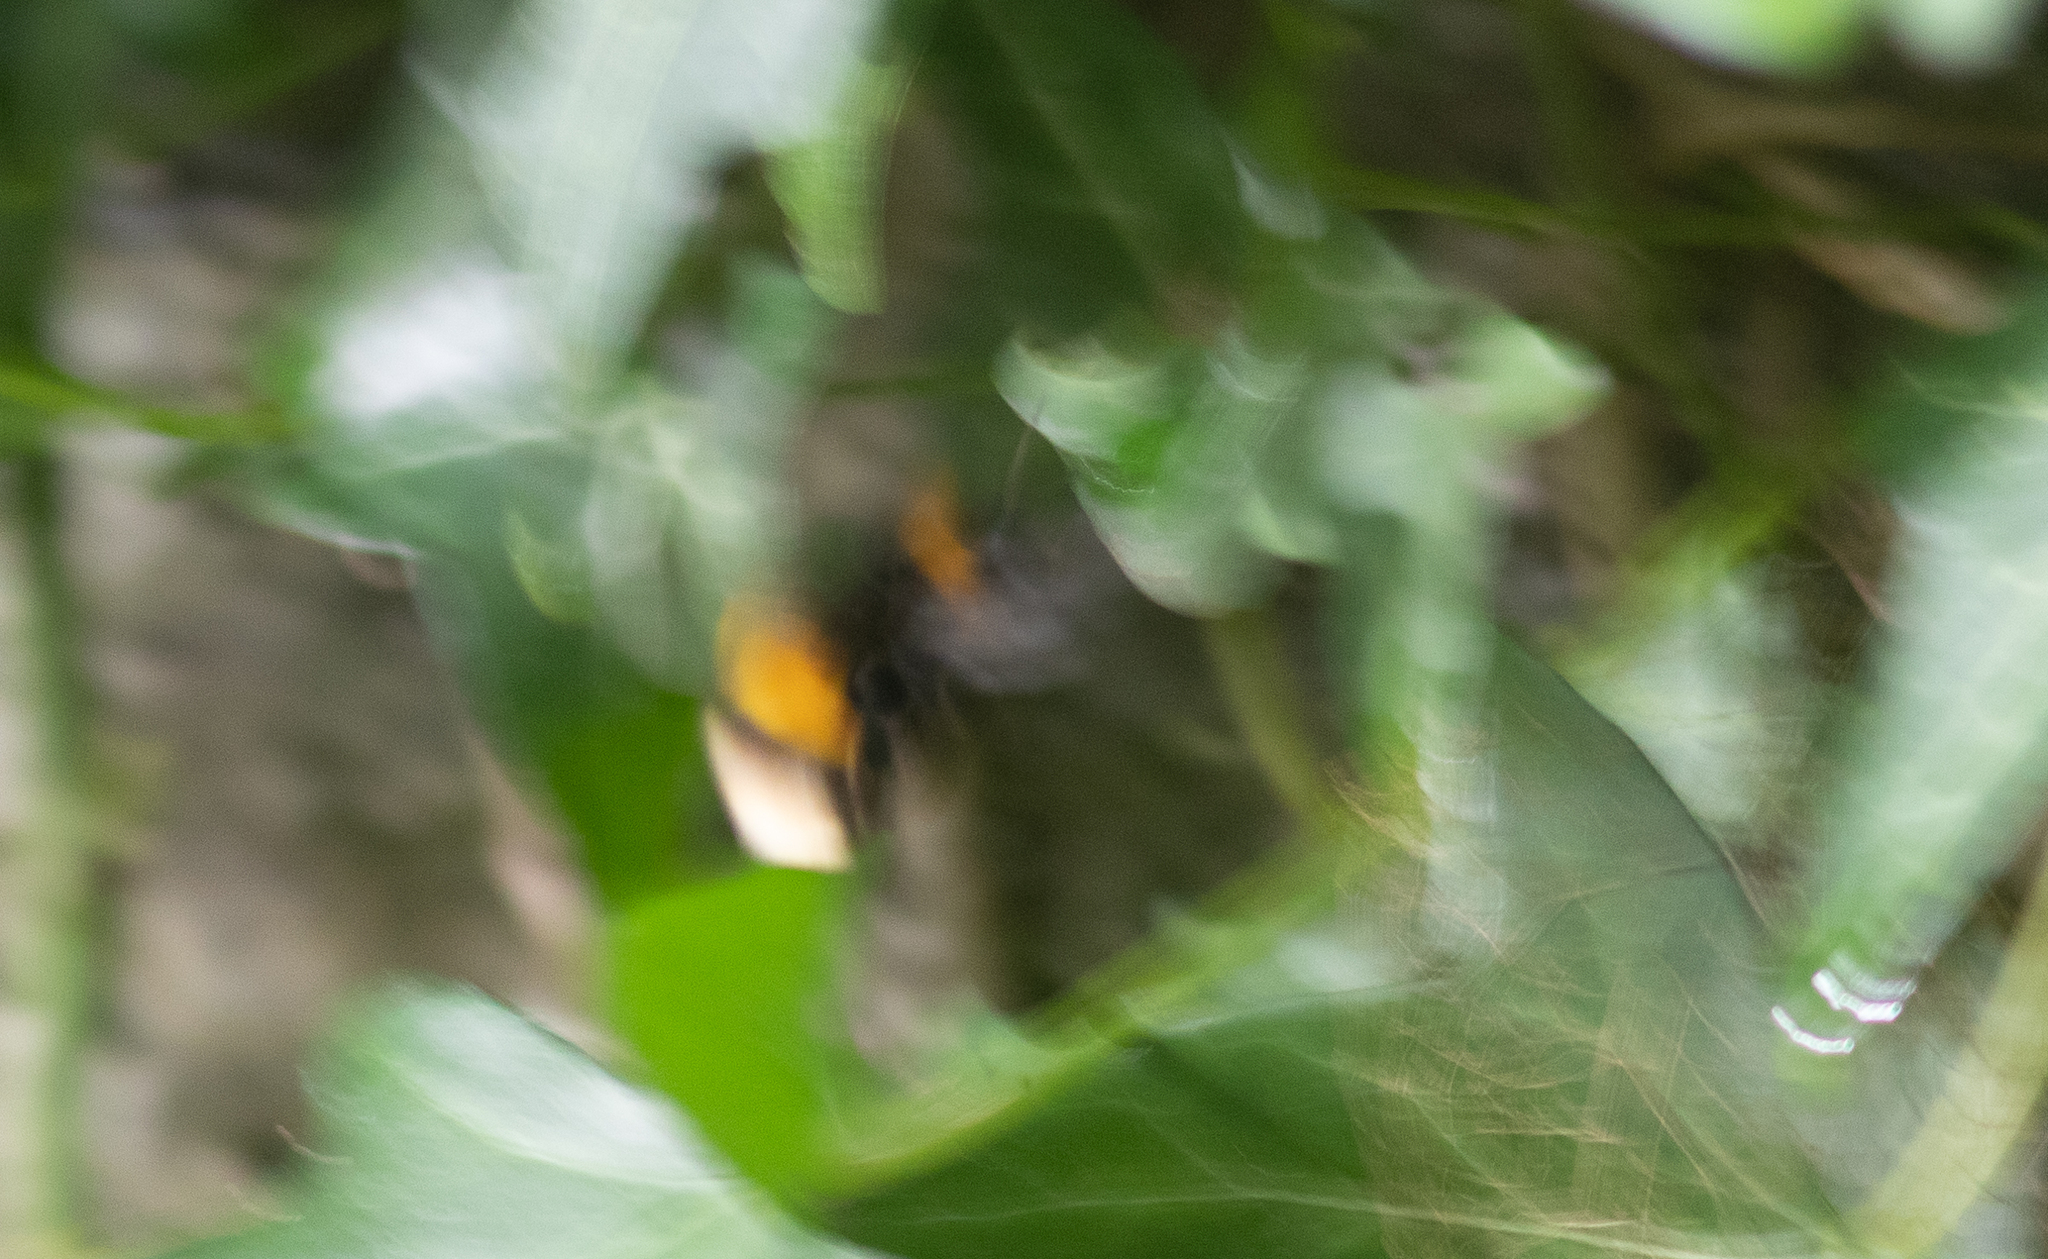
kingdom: Animalia
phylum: Arthropoda
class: Insecta
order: Hymenoptera
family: Apidae
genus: Bombus
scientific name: Bombus
